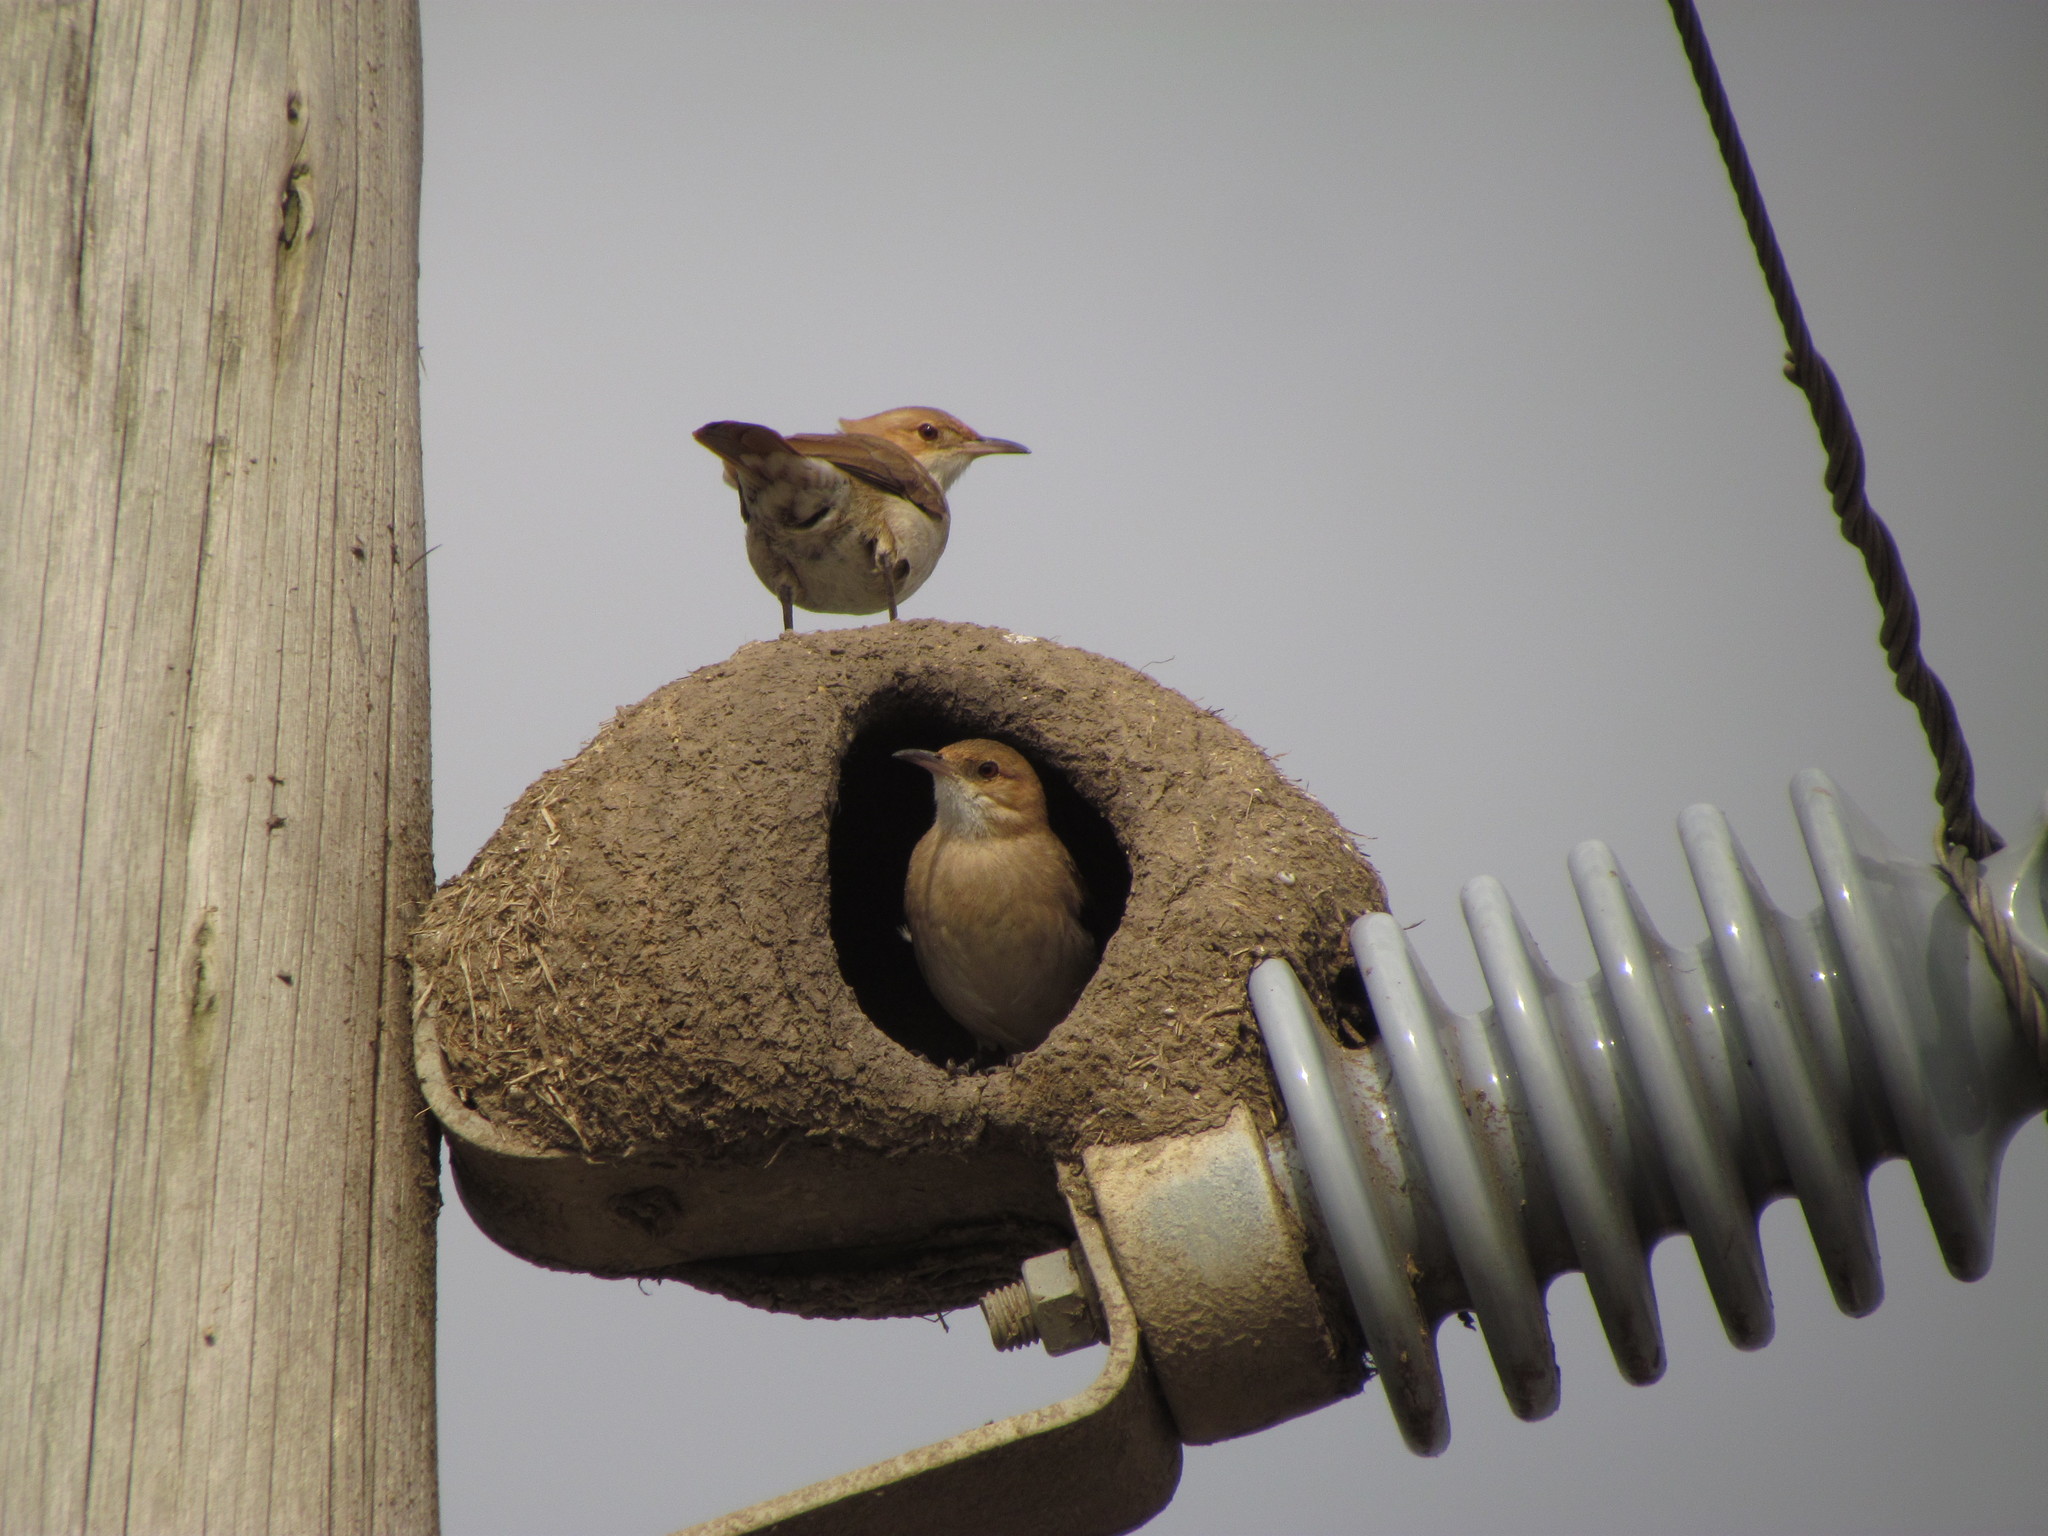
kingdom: Animalia
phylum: Chordata
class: Aves
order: Passeriformes
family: Furnariidae
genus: Furnarius
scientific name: Furnarius rufus
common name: Rufous hornero
